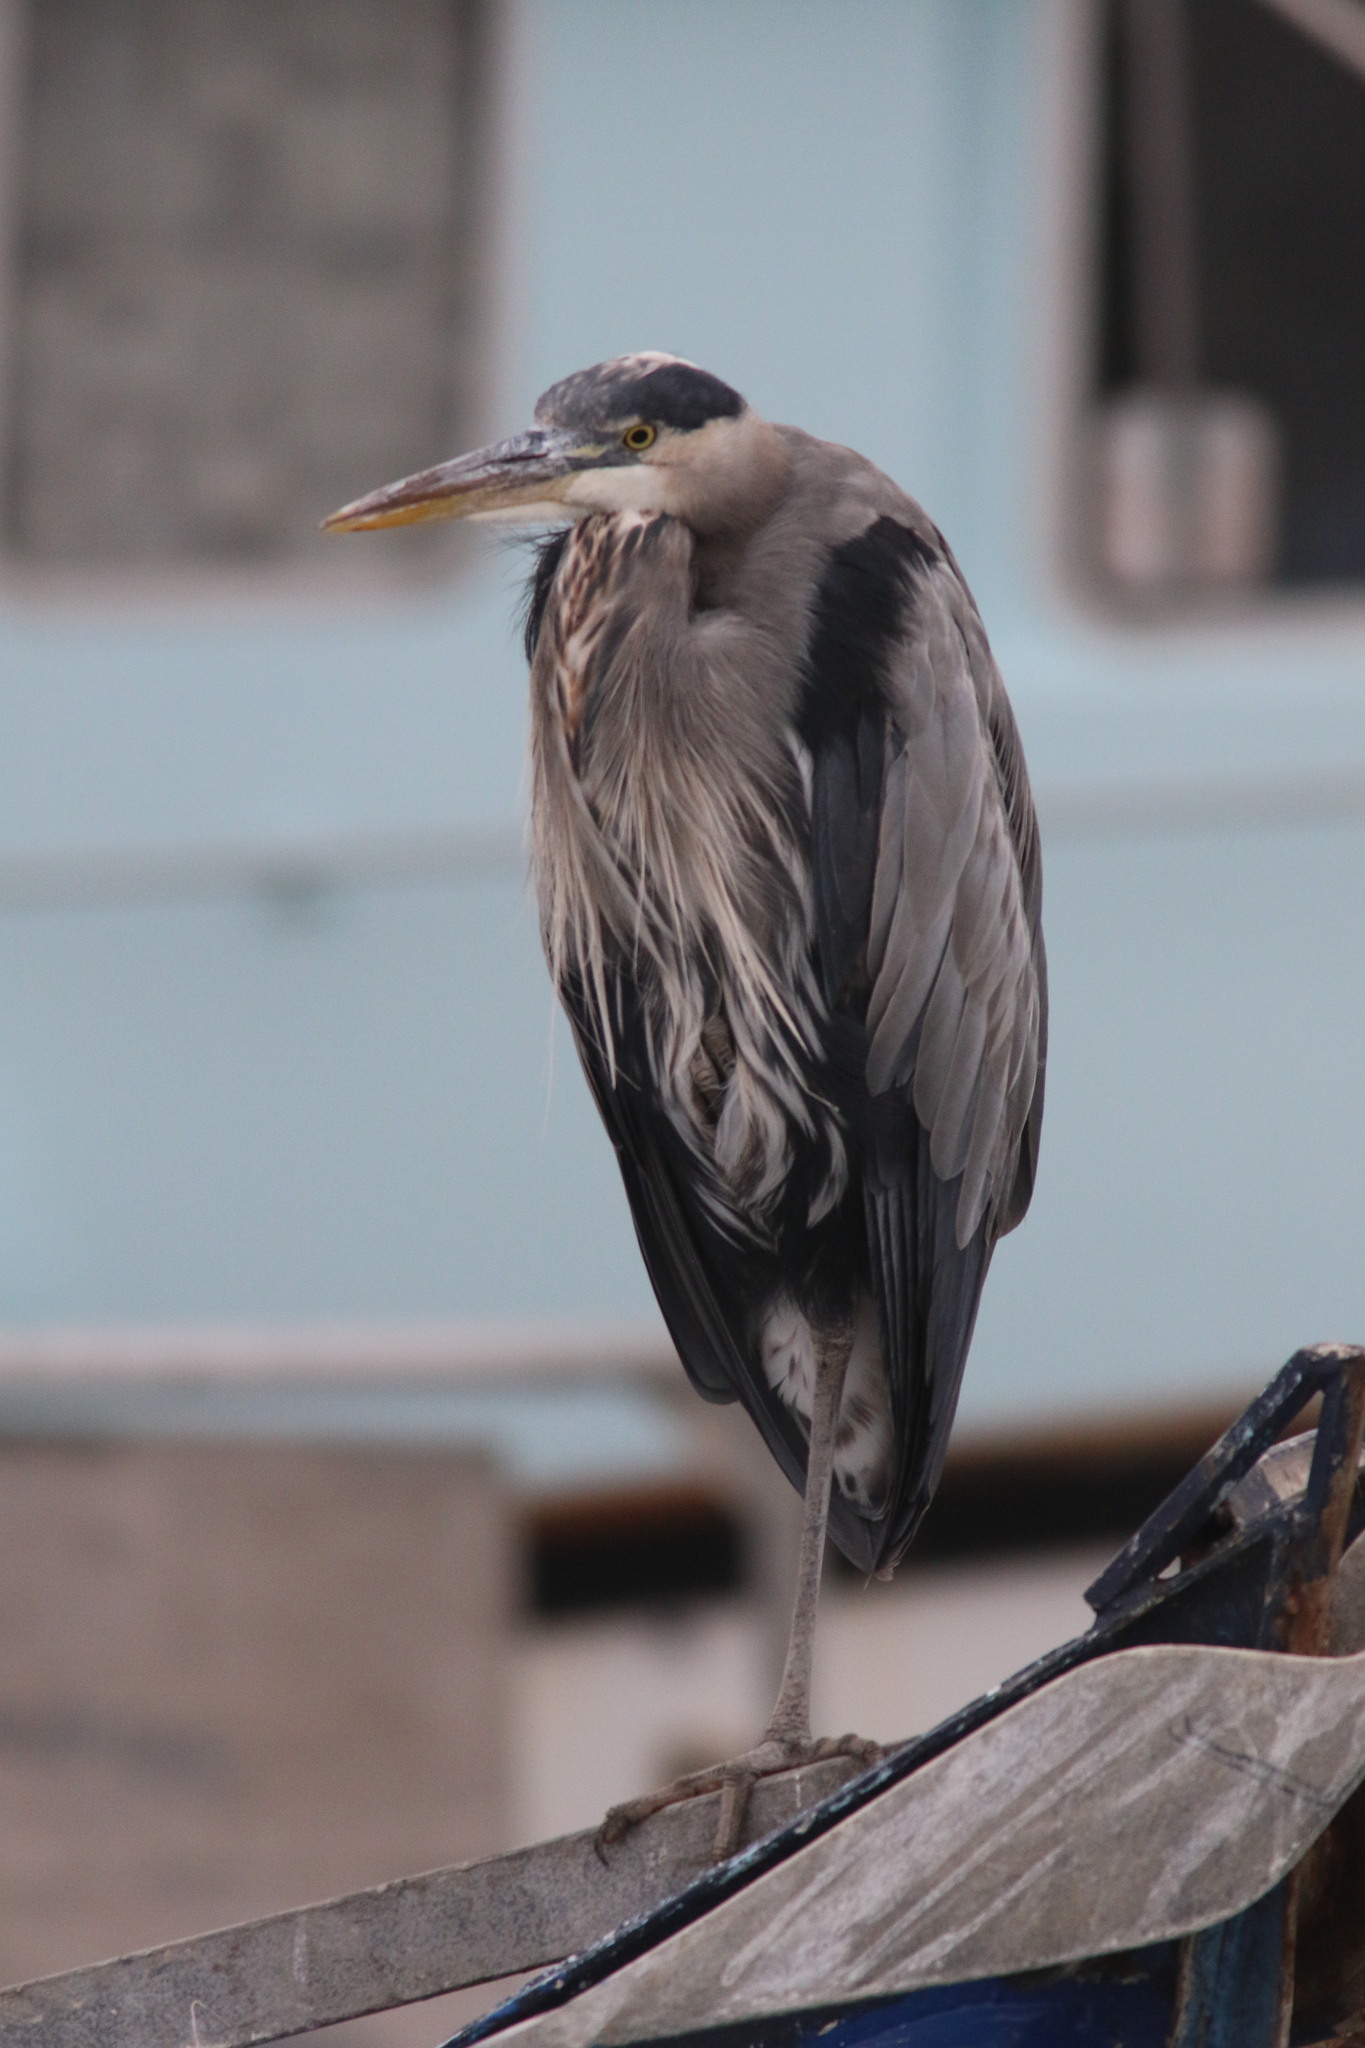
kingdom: Animalia
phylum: Chordata
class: Aves
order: Pelecaniformes
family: Ardeidae
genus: Ardea
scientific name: Ardea herodias
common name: Great blue heron
